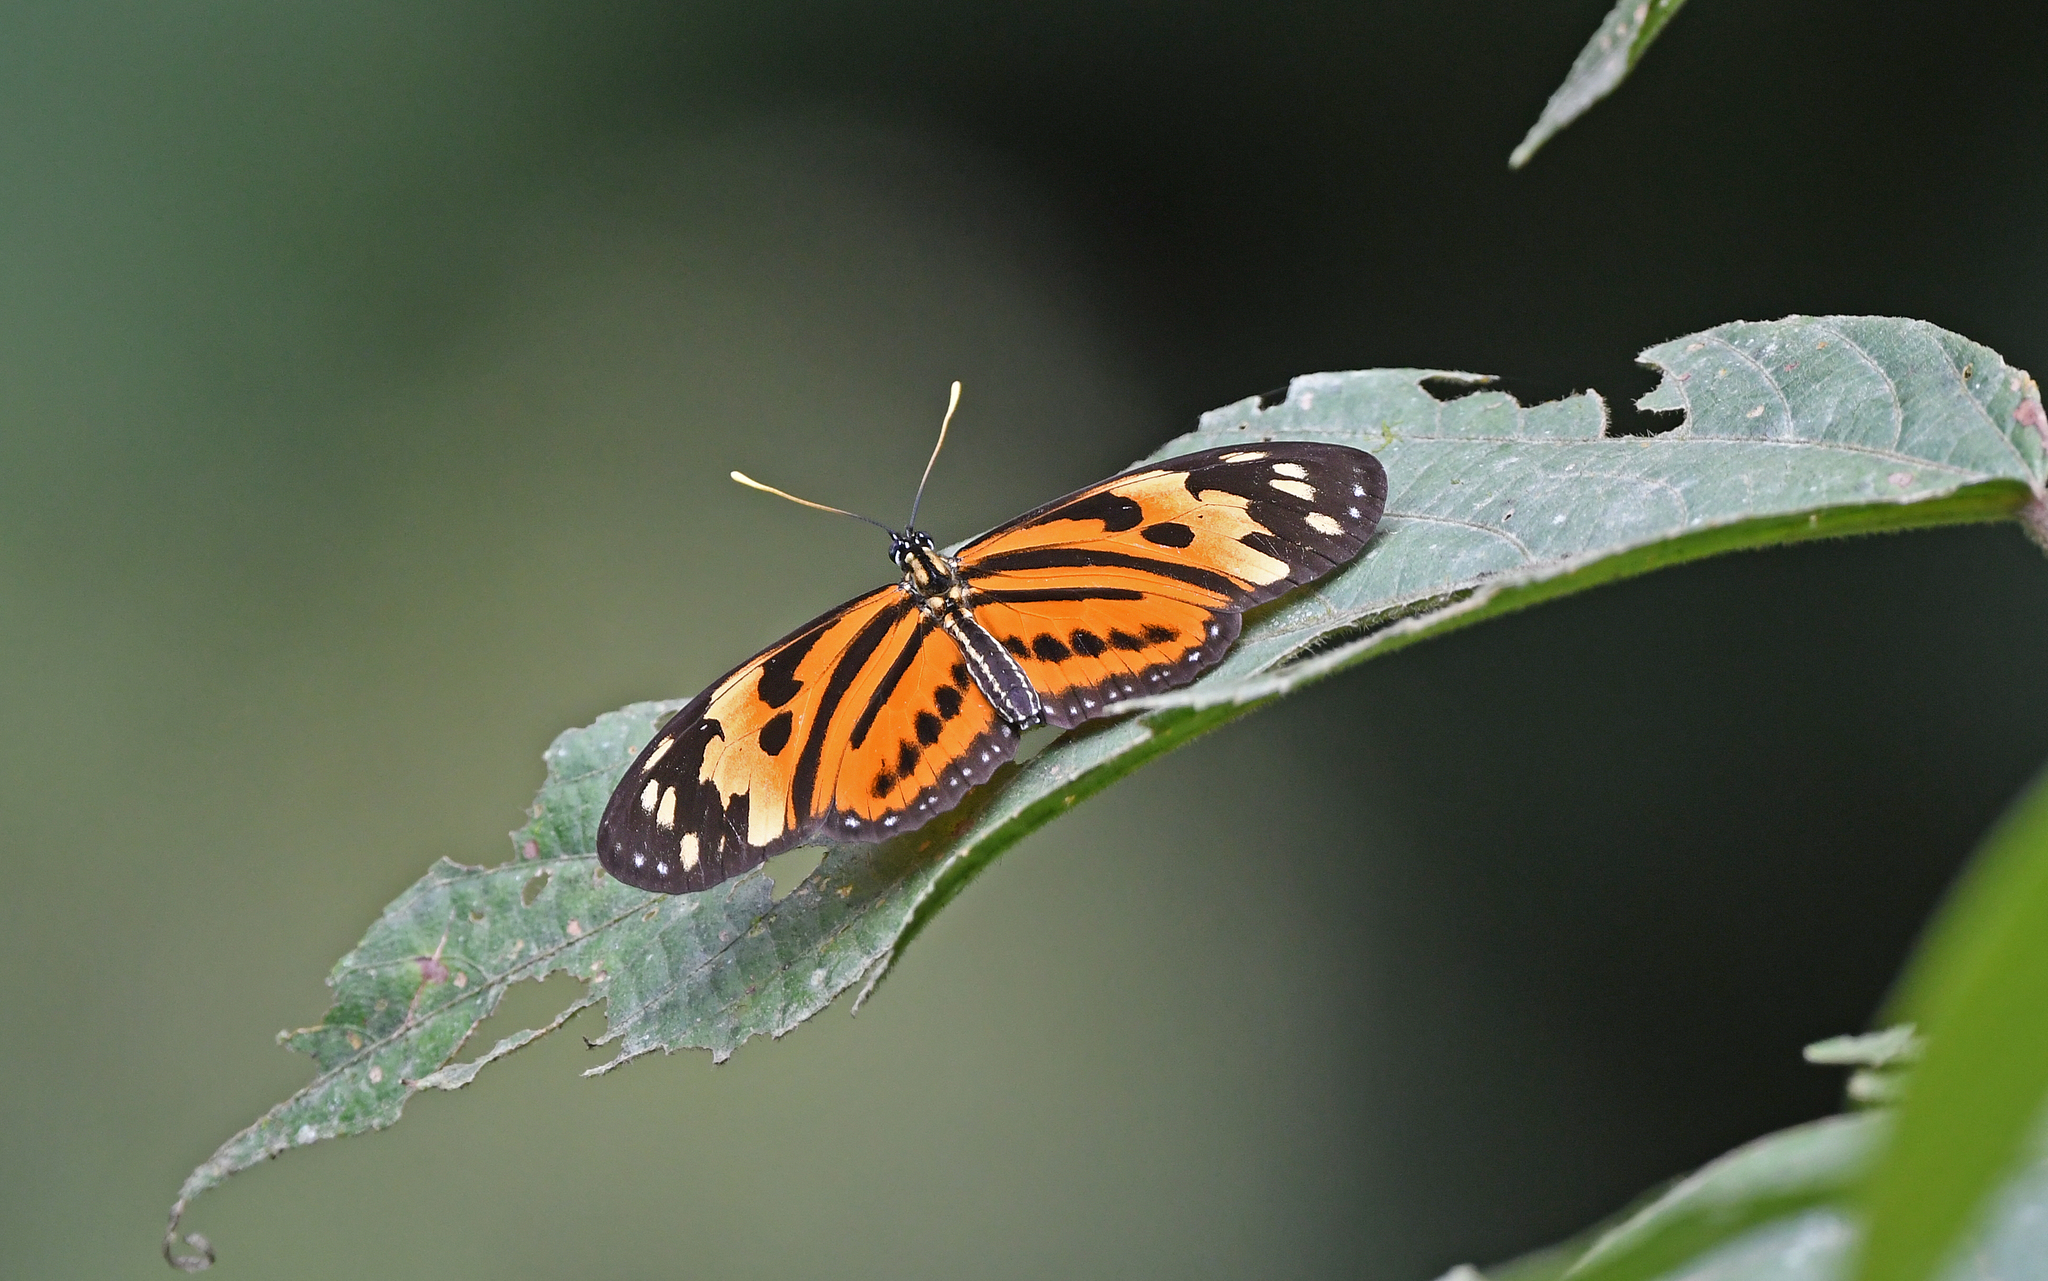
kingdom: Animalia
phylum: Arthropoda
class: Insecta
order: Lepidoptera
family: Nymphalidae
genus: Eueides
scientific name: Eueides isabella
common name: Isabella's longwing
